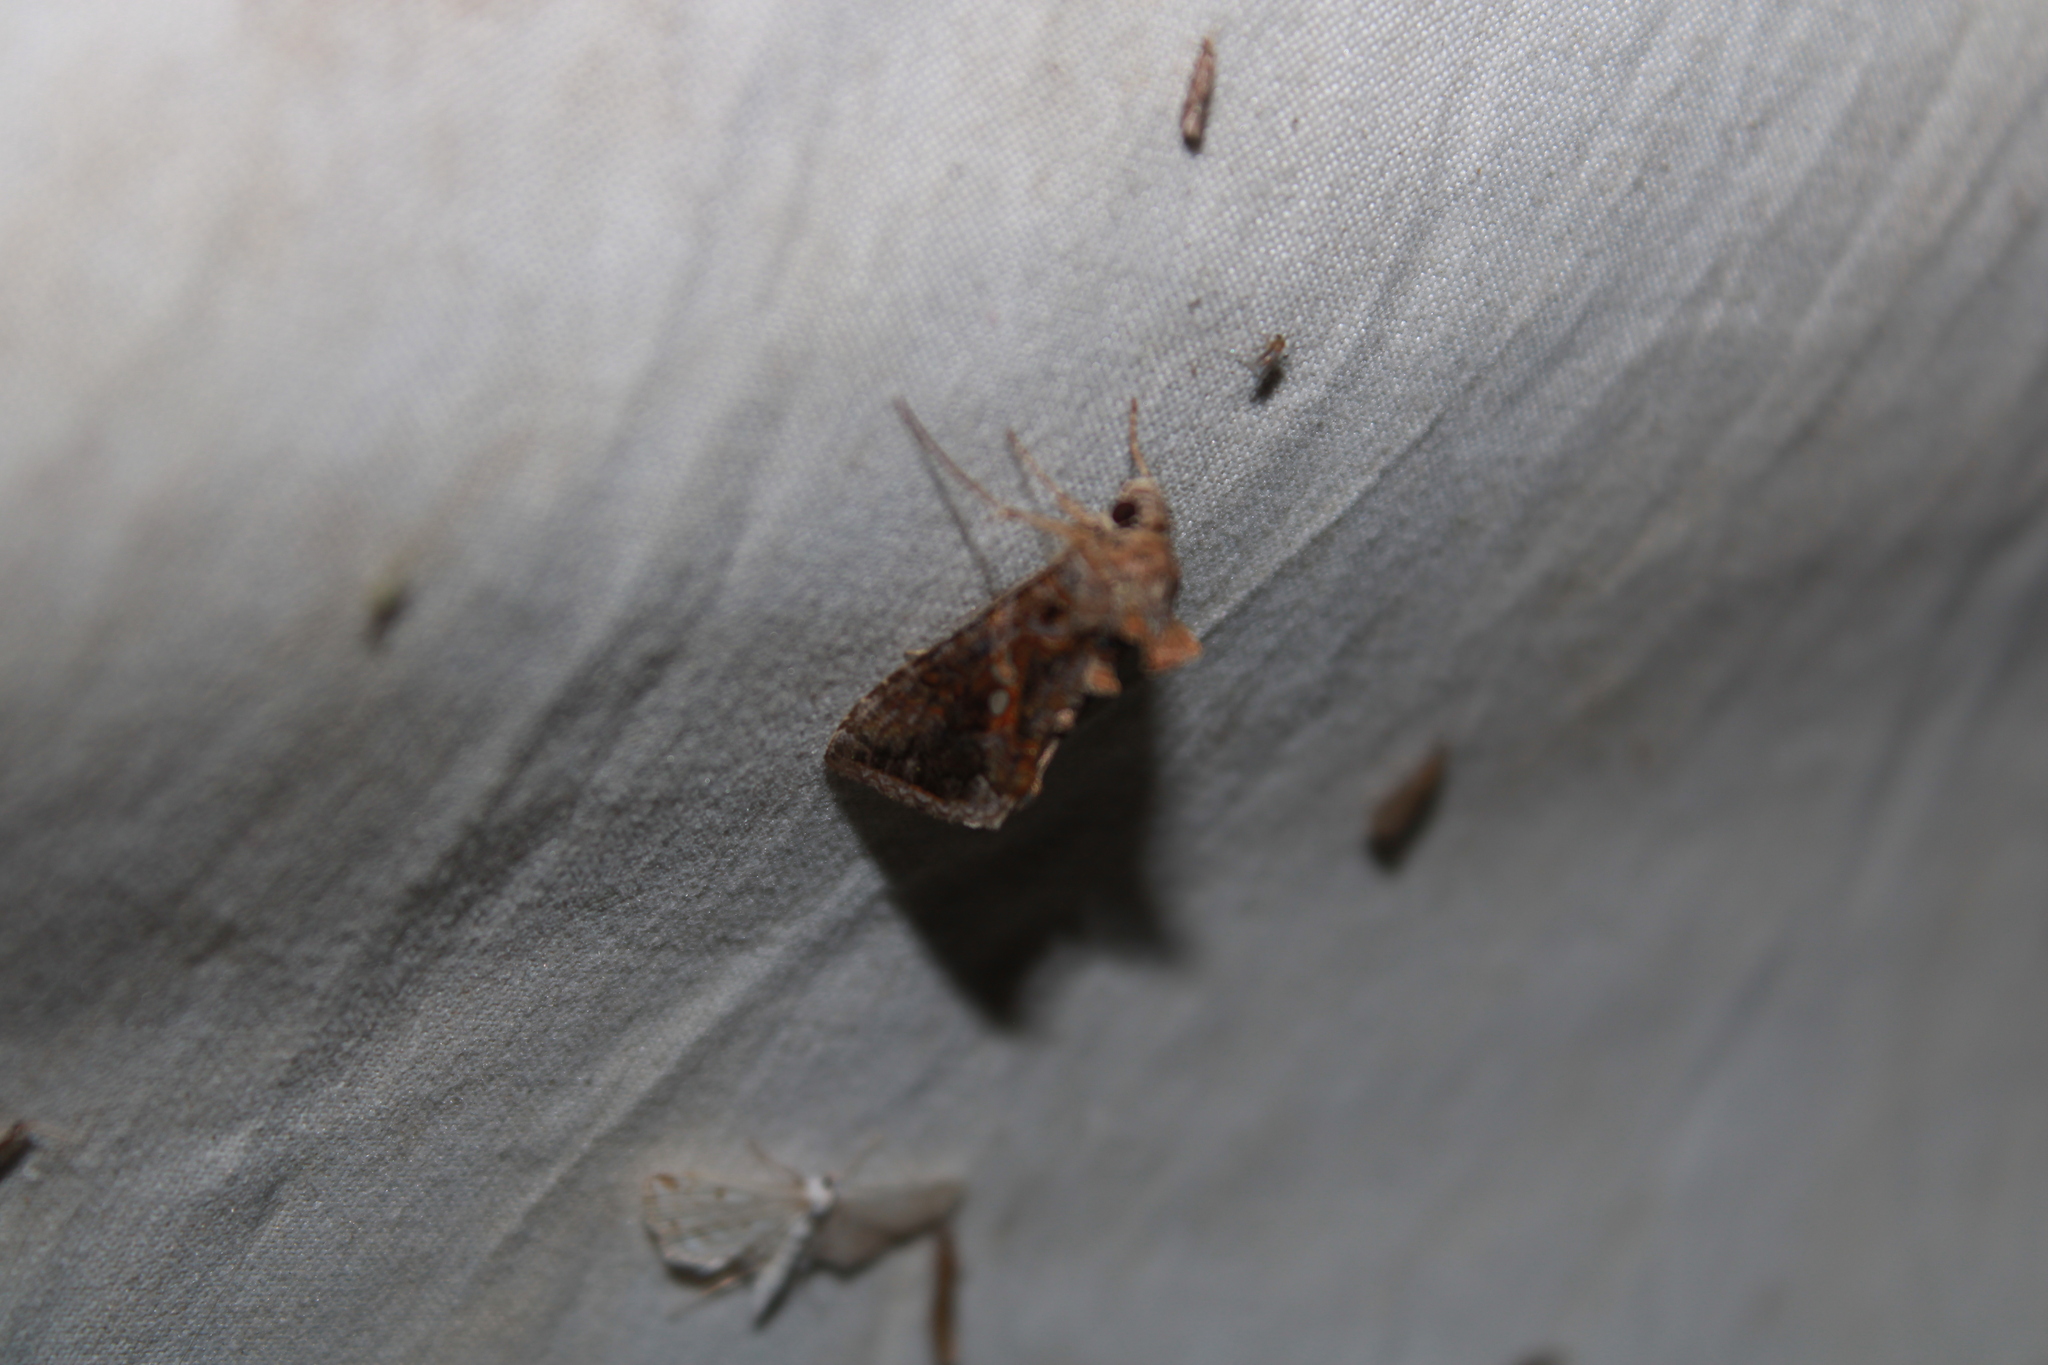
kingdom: Animalia
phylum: Arthropoda
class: Insecta
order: Lepidoptera
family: Noctuidae
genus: Chrysodeixis
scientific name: Chrysodeixis includens
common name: Cutworm moth
